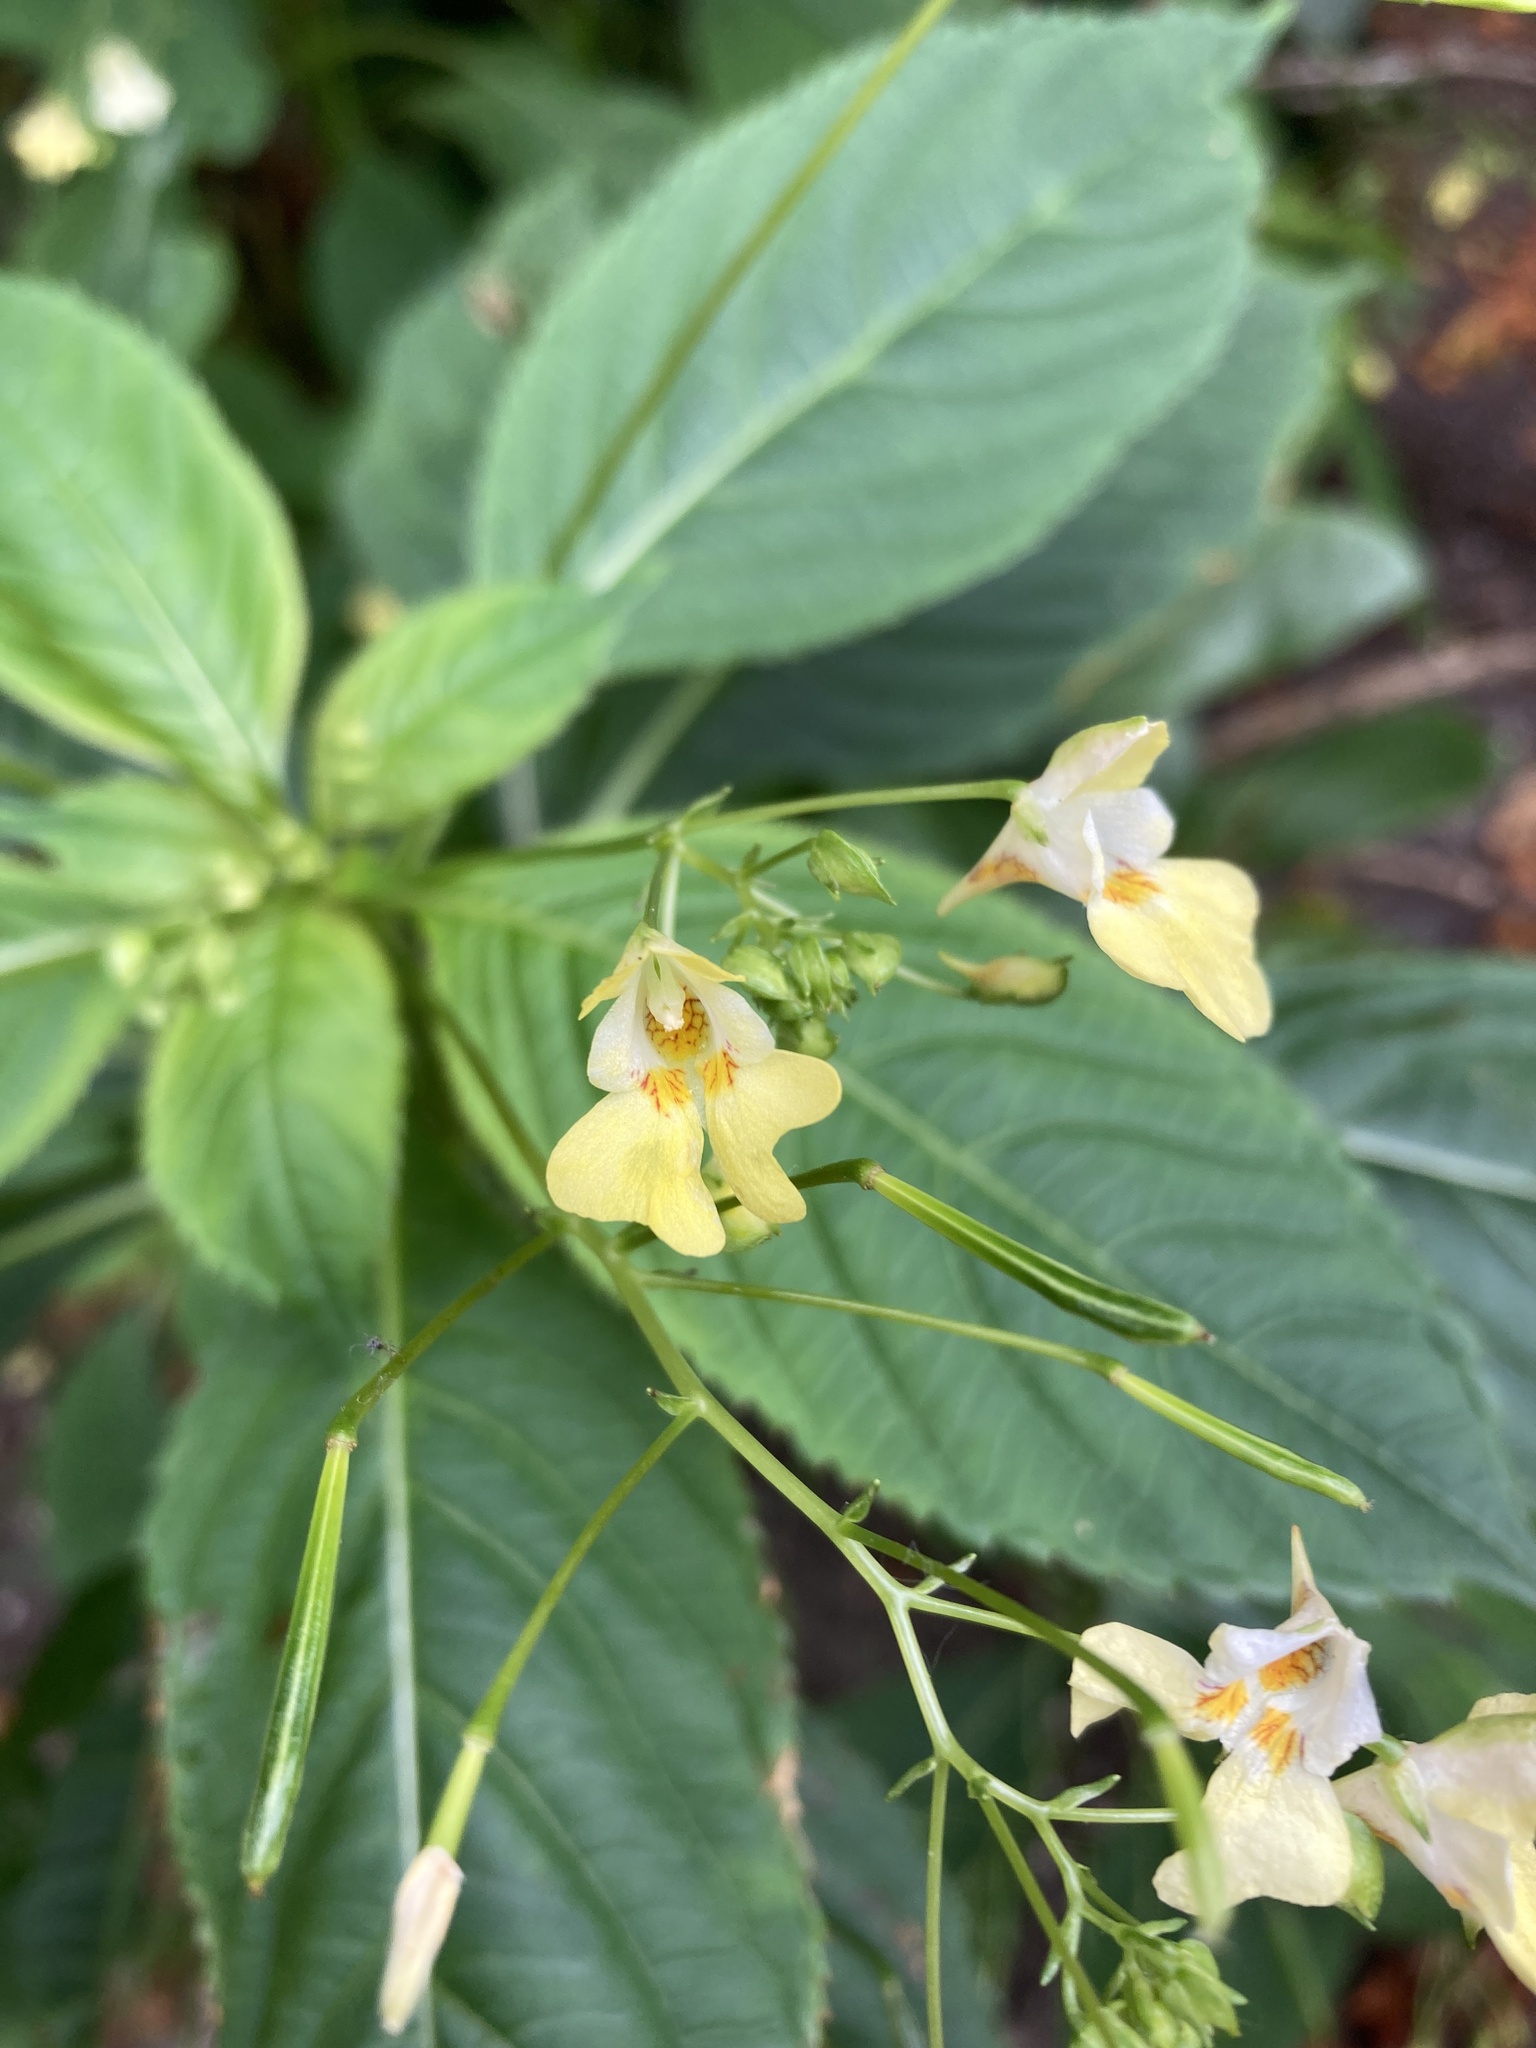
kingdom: Plantae
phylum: Tracheophyta
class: Magnoliopsida
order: Ericales
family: Balsaminaceae
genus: Impatiens
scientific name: Impatiens parviflora
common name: Small balsam
